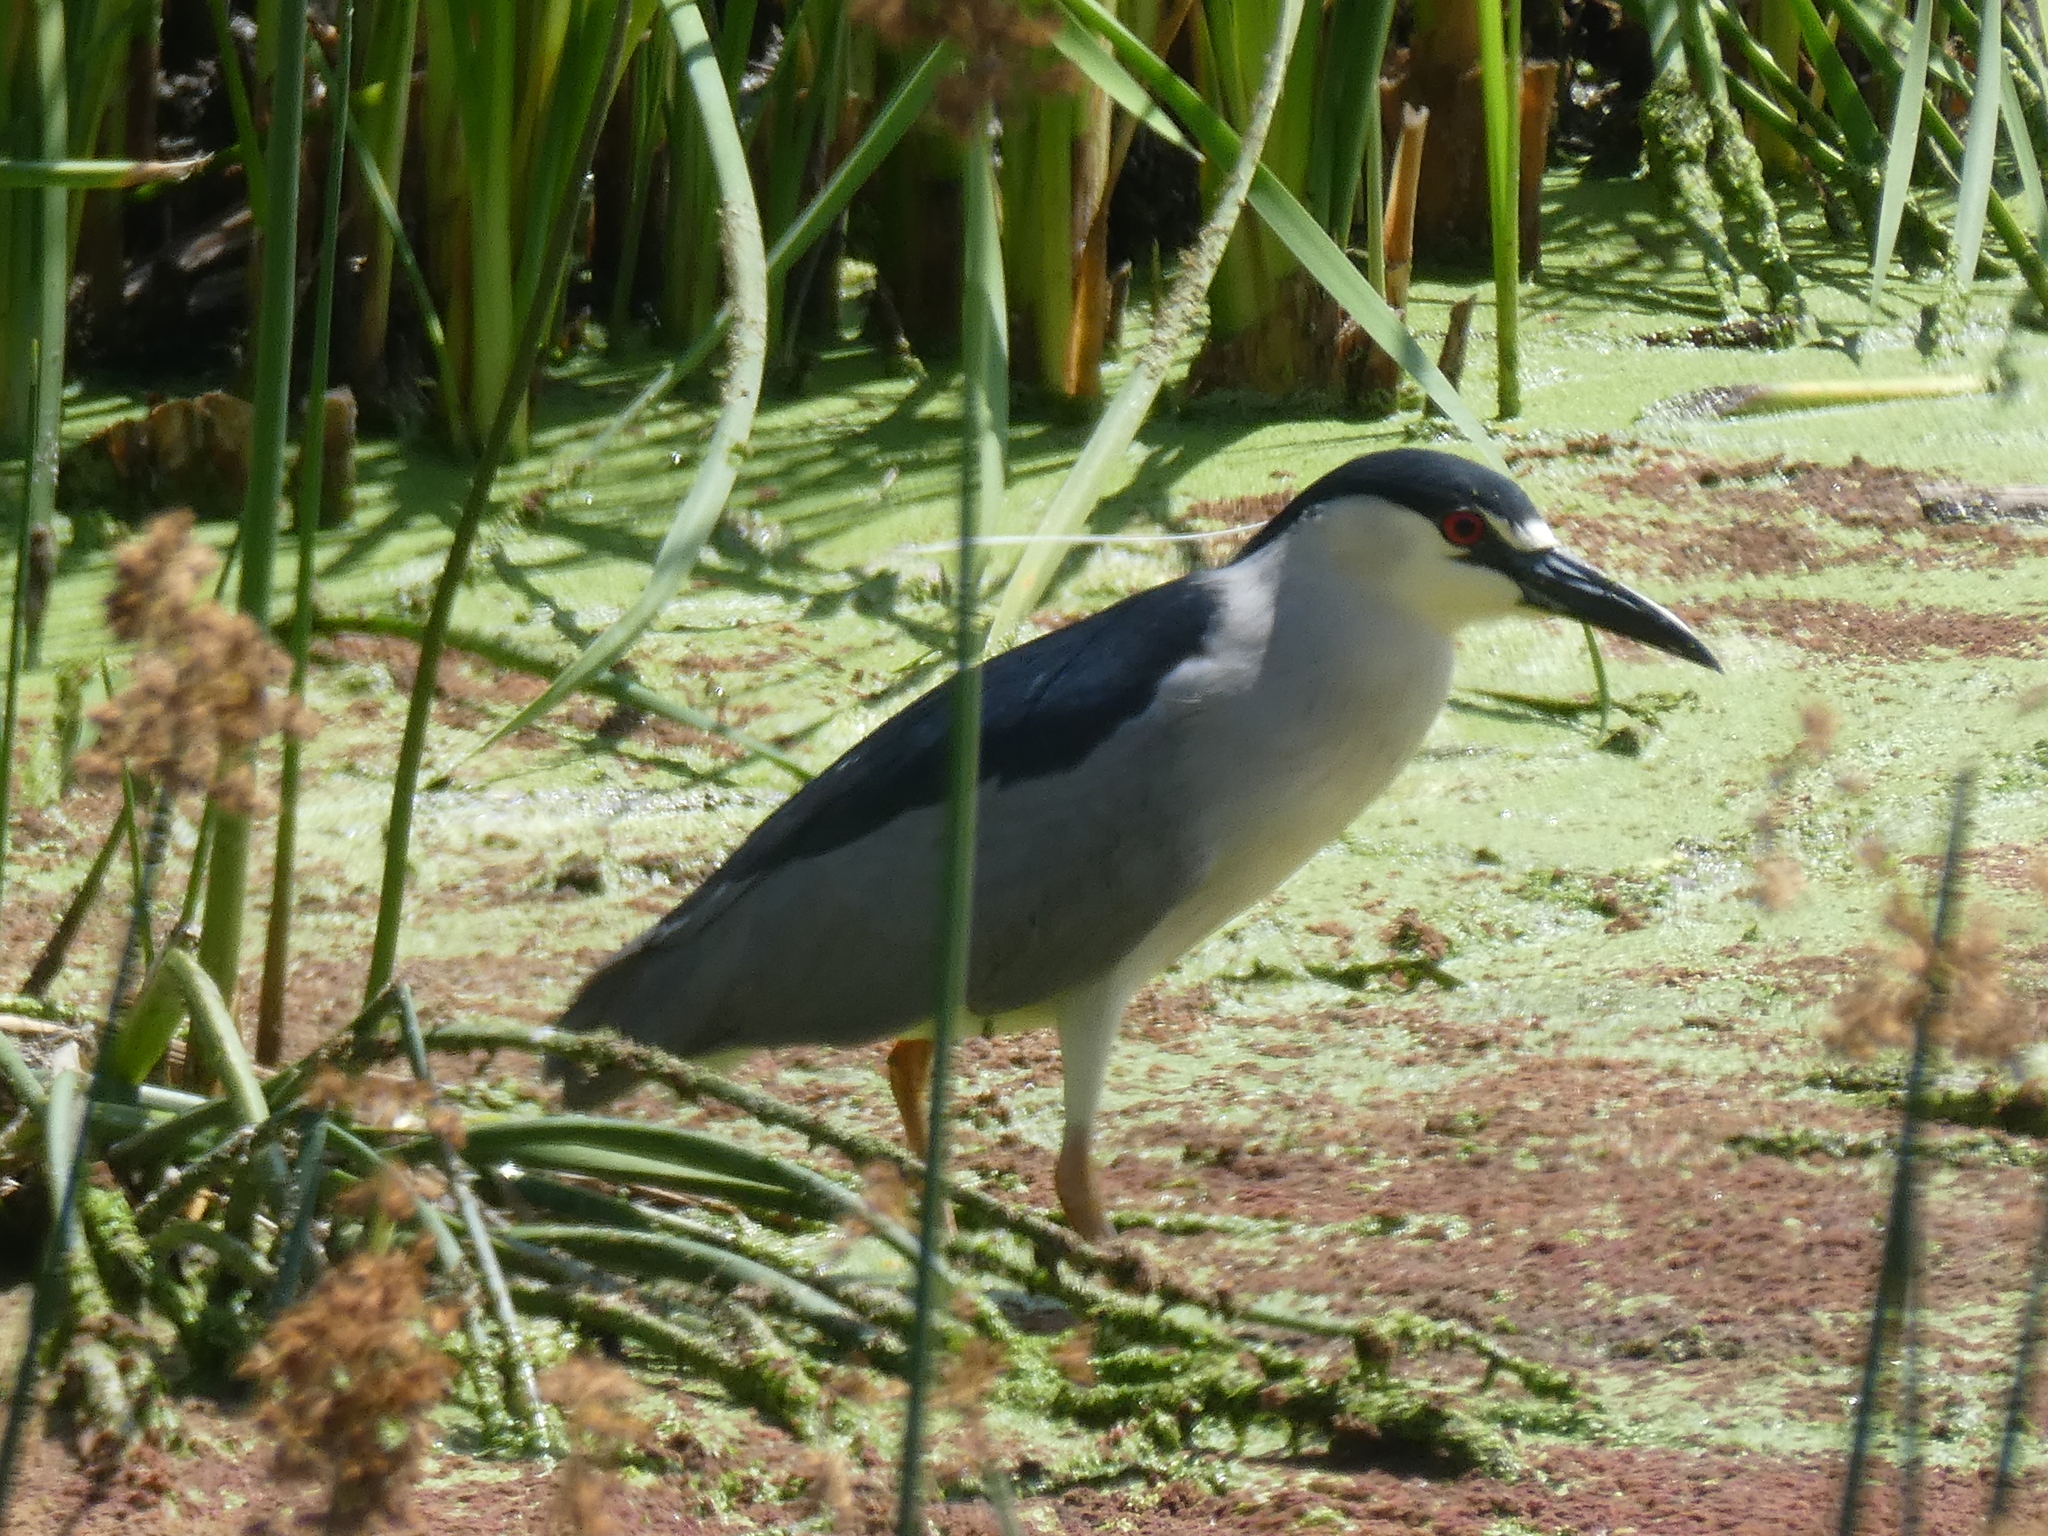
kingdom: Animalia
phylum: Chordata
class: Aves
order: Pelecaniformes
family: Ardeidae
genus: Nycticorax
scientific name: Nycticorax nycticorax
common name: Black-crowned night heron
